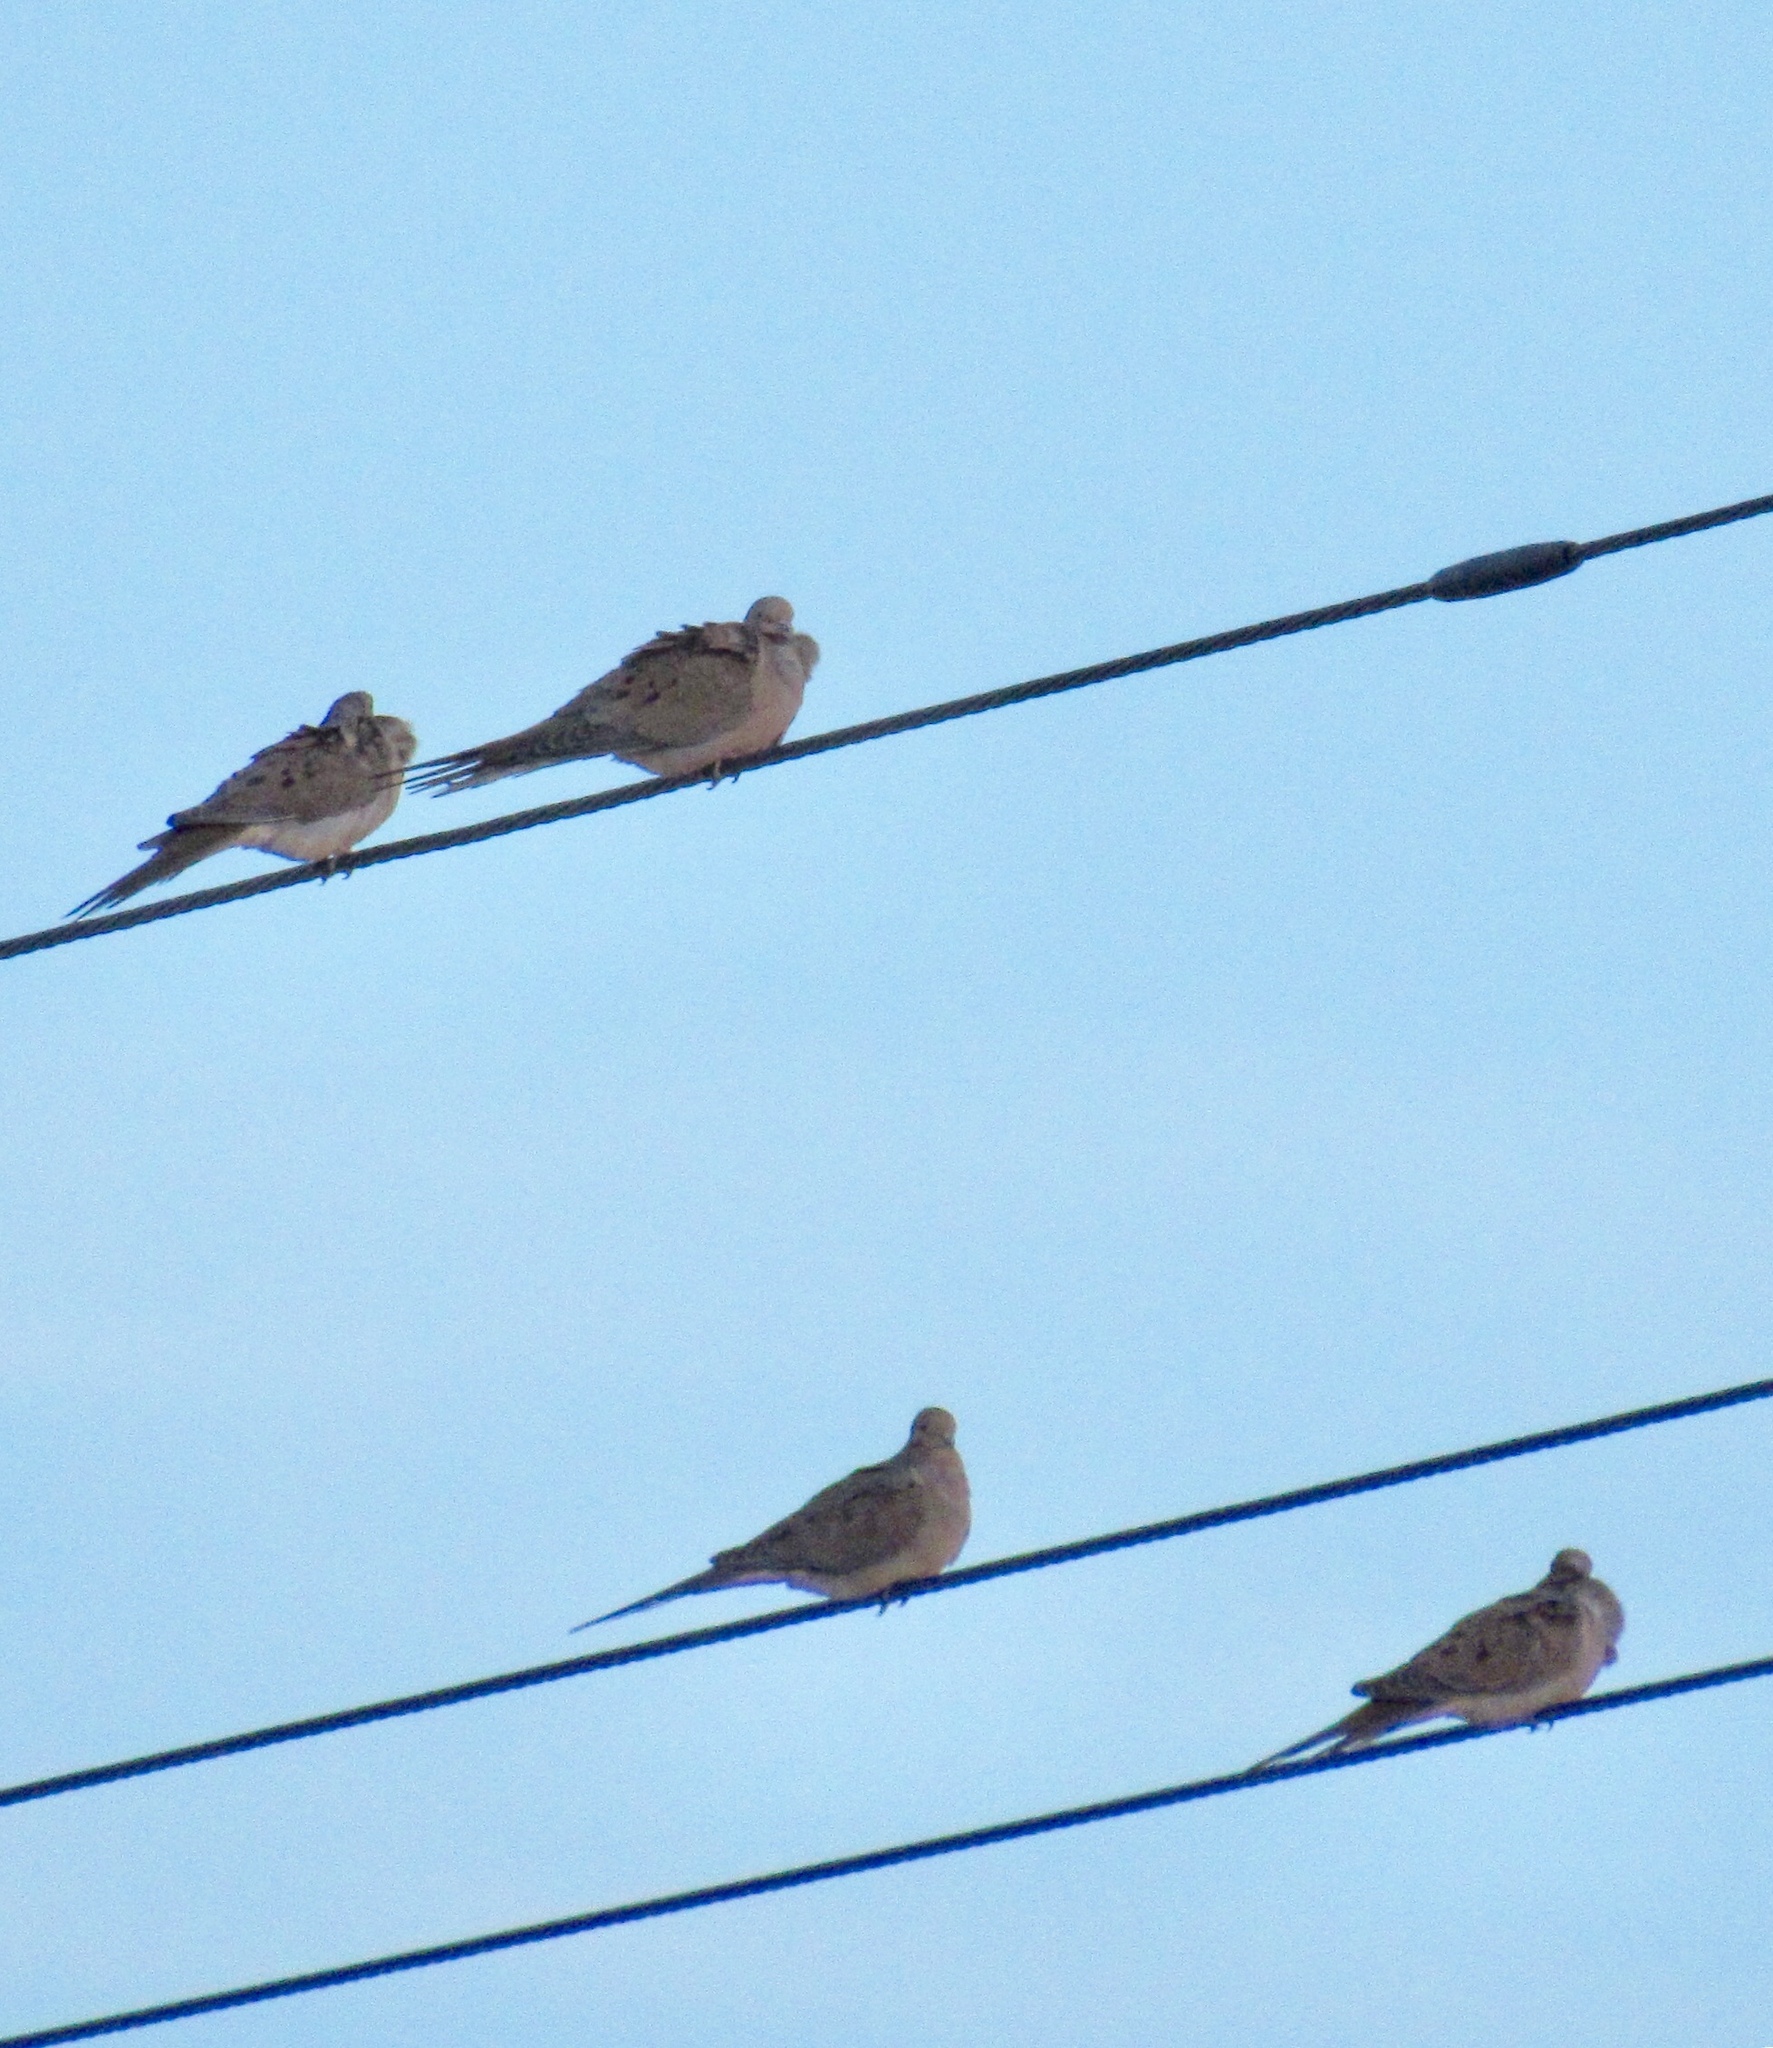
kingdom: Animalia
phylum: Chordata
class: Aves
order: Columbiformes
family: Columbidae
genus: Zenaida
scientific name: Zenaida macroura
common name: Mourning dove
